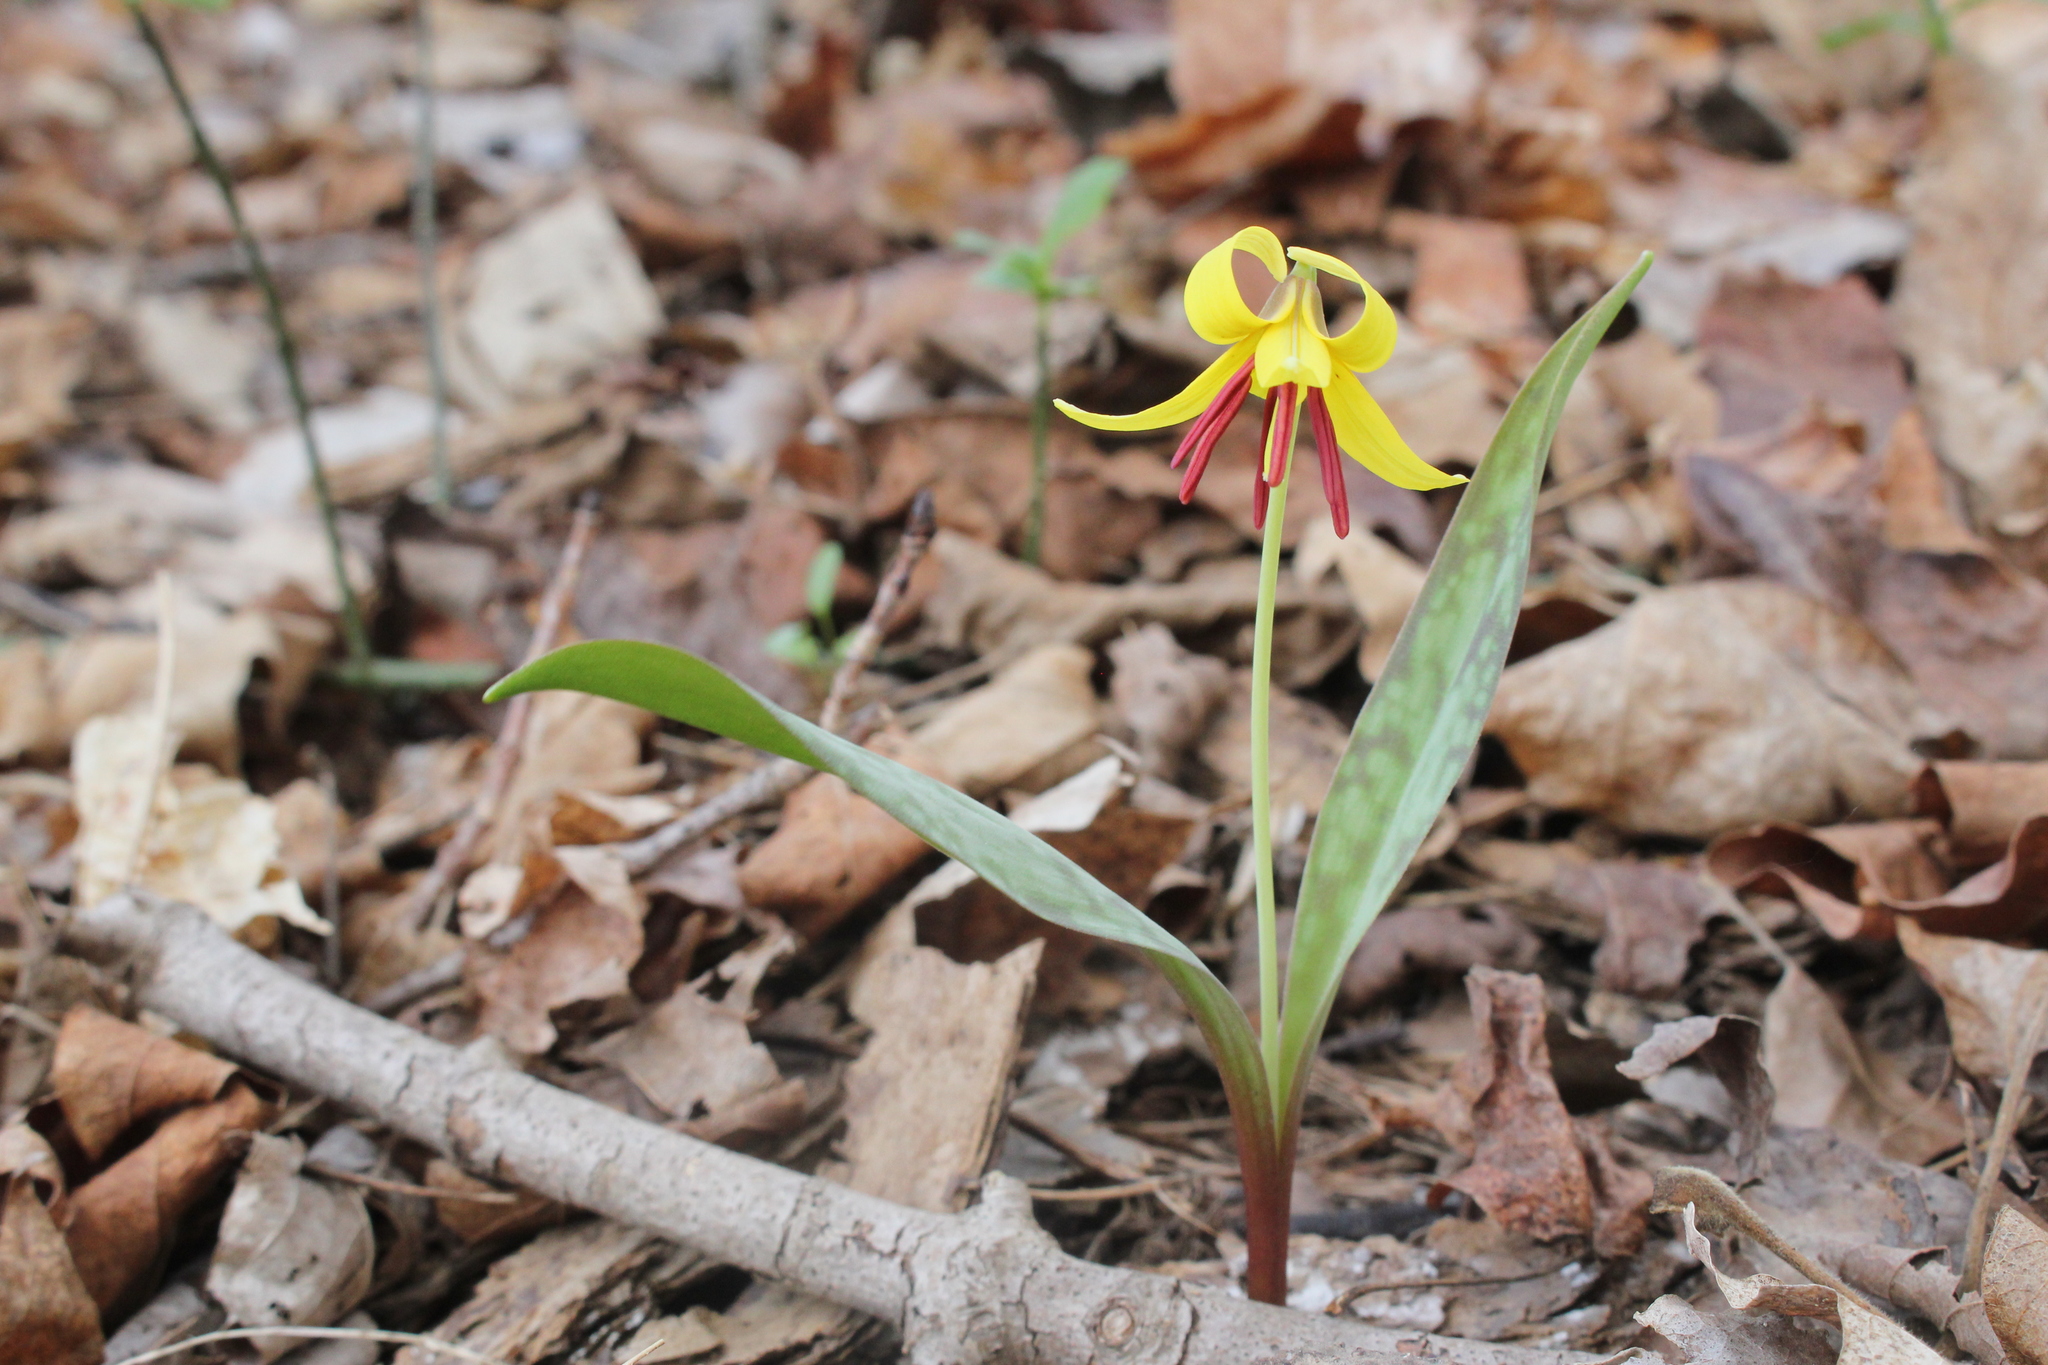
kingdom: Plantae
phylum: Tracheophyta
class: Liliopsida
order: Liliales
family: Liliaceae
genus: Erythronium
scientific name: Erythronium americanum
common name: Yellow adder's-tongue
